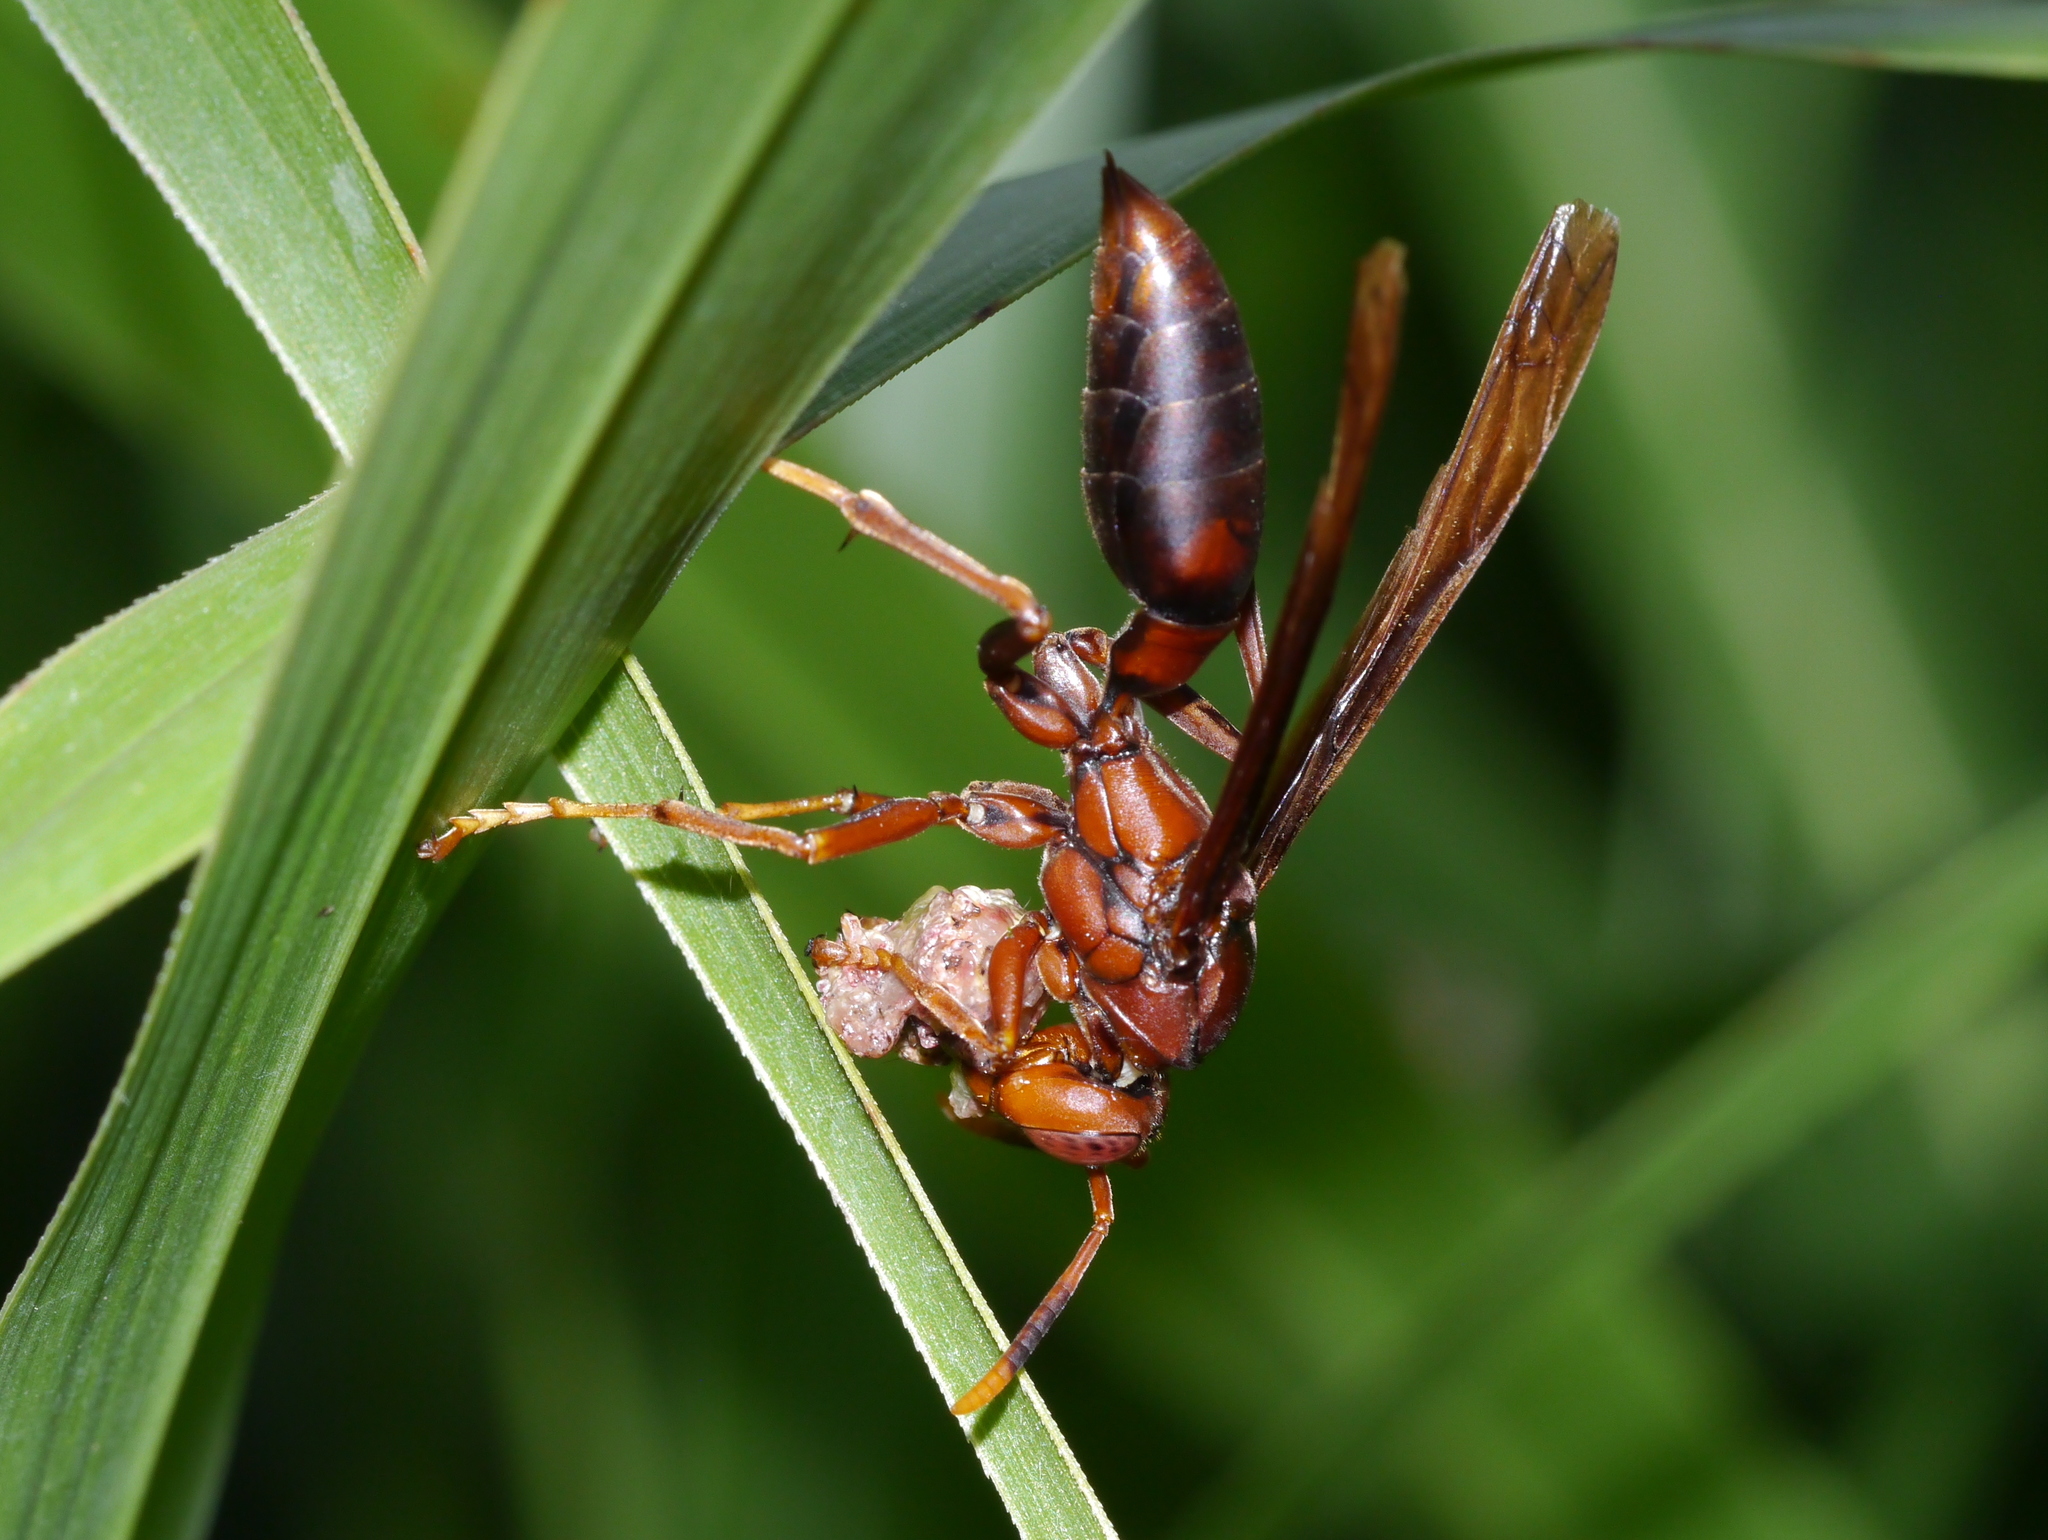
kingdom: Animalia
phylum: Arthropoda
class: Insecta
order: Hymenoptera
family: Eumenidae
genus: Polistes
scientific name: Polistes canadensis
